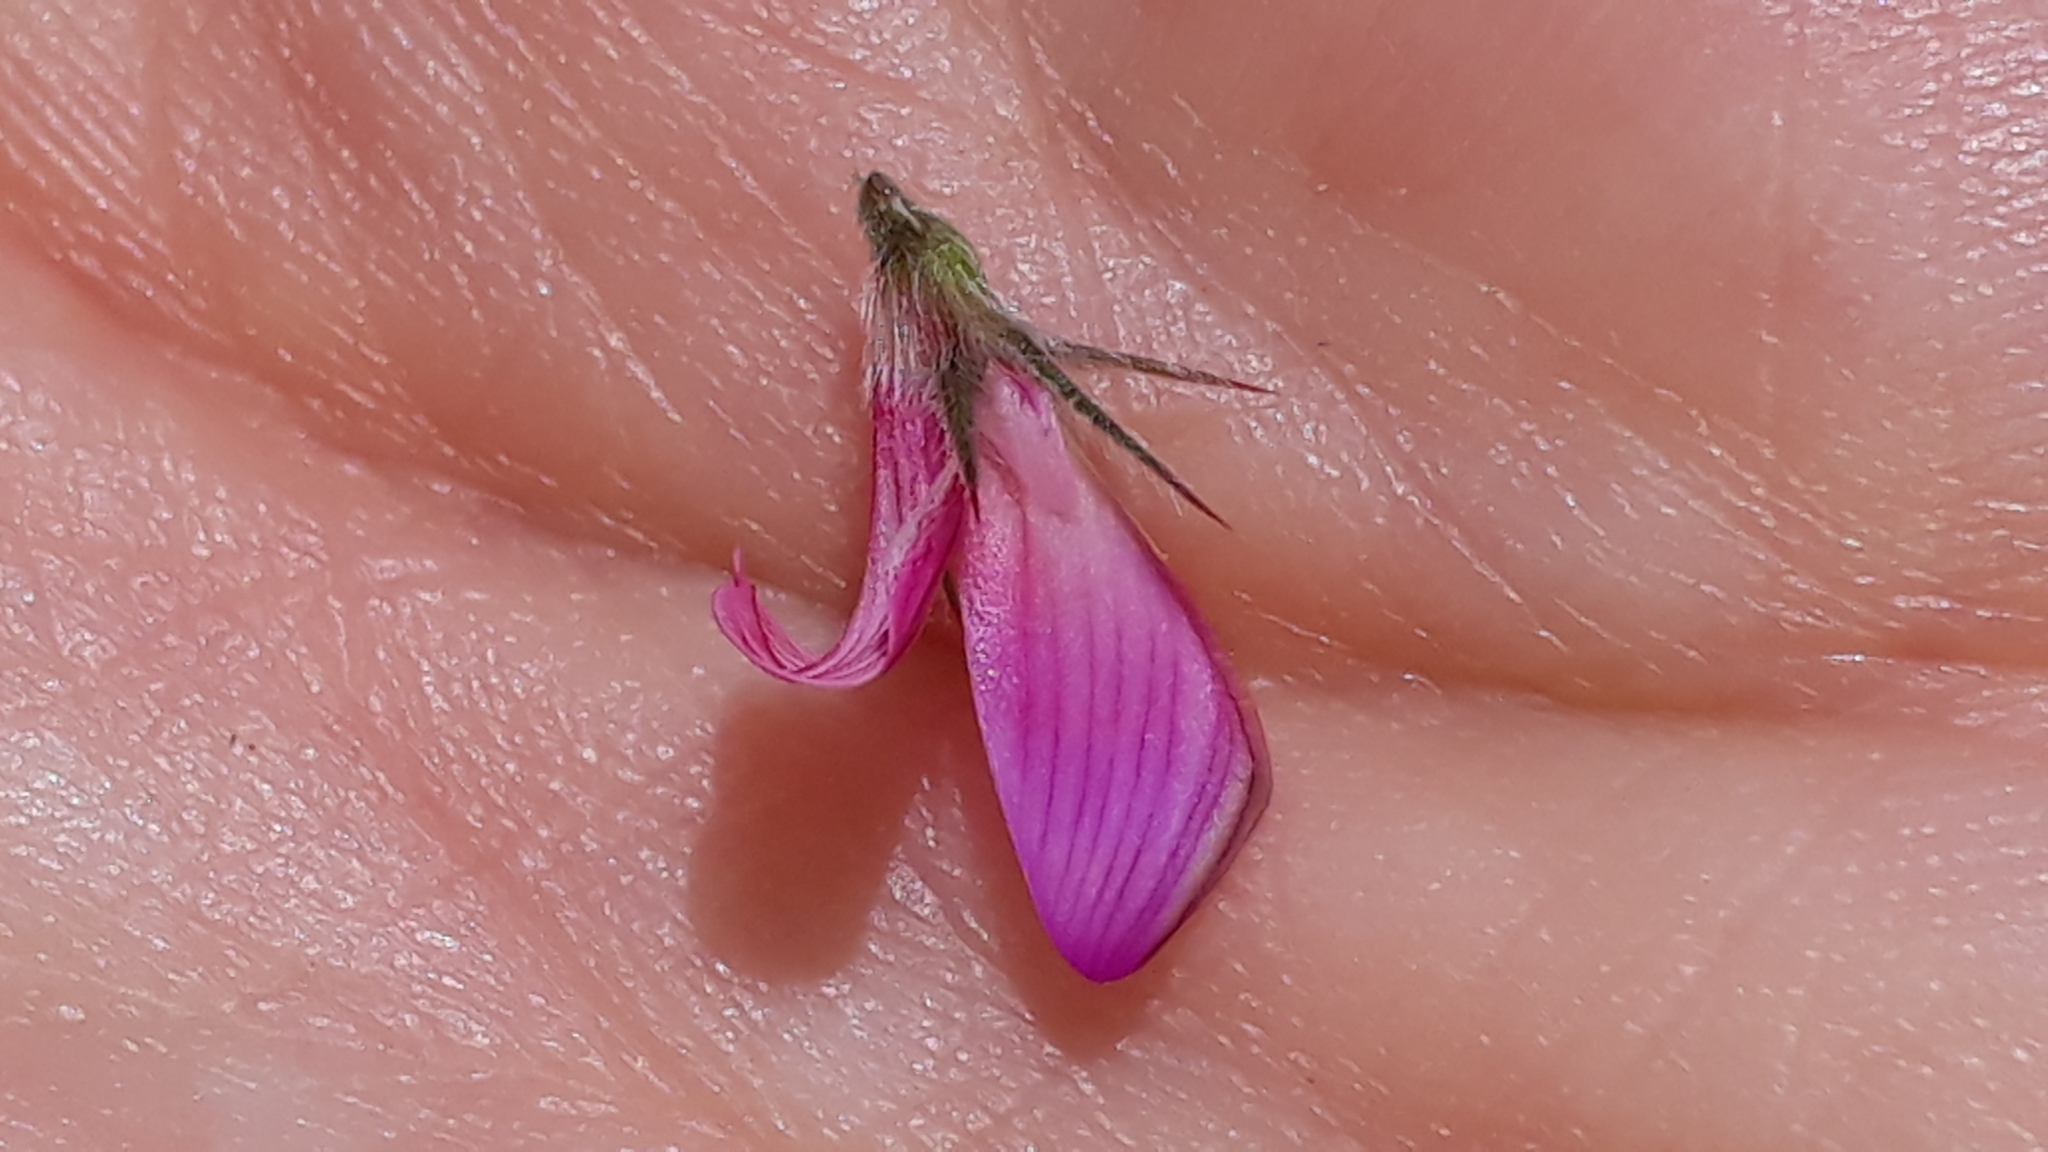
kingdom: Plantae
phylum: Tracheophyta
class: Magnoliopsida
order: Fabales
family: Fabaceae
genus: Onobrychis
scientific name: Onobrychis montana
